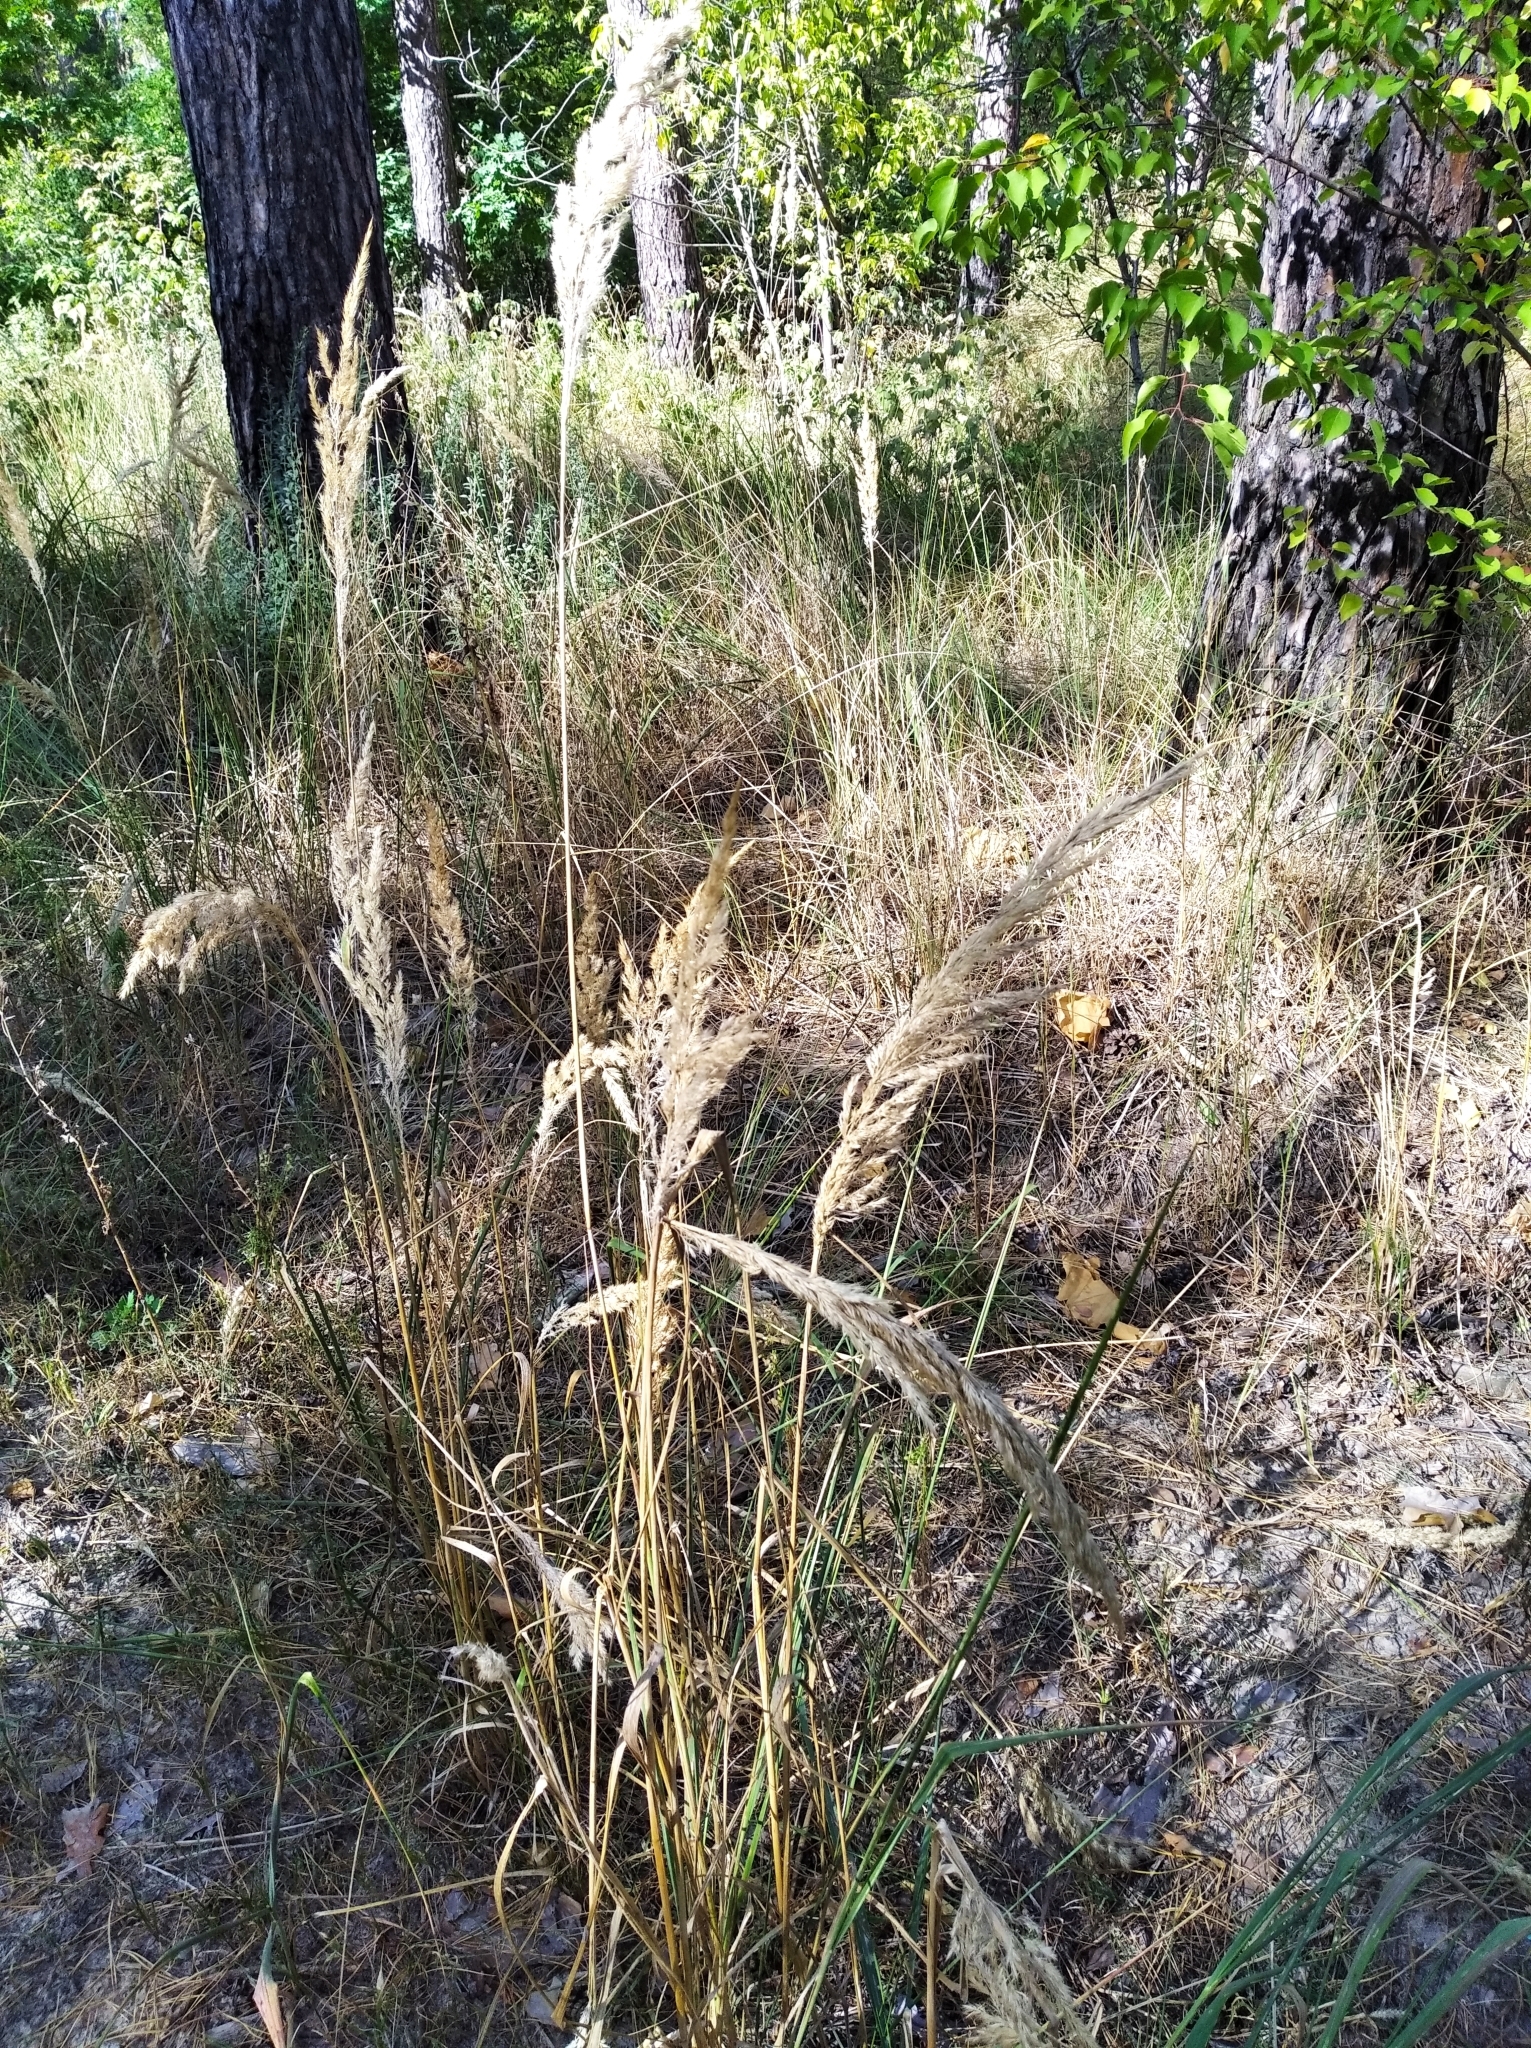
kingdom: Plantae
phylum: Tracheophyta
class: Liliopsida
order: Poales
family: Poaceae
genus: Calamagrostis
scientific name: Calamagrostis epigejos
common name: Wood small-reed
